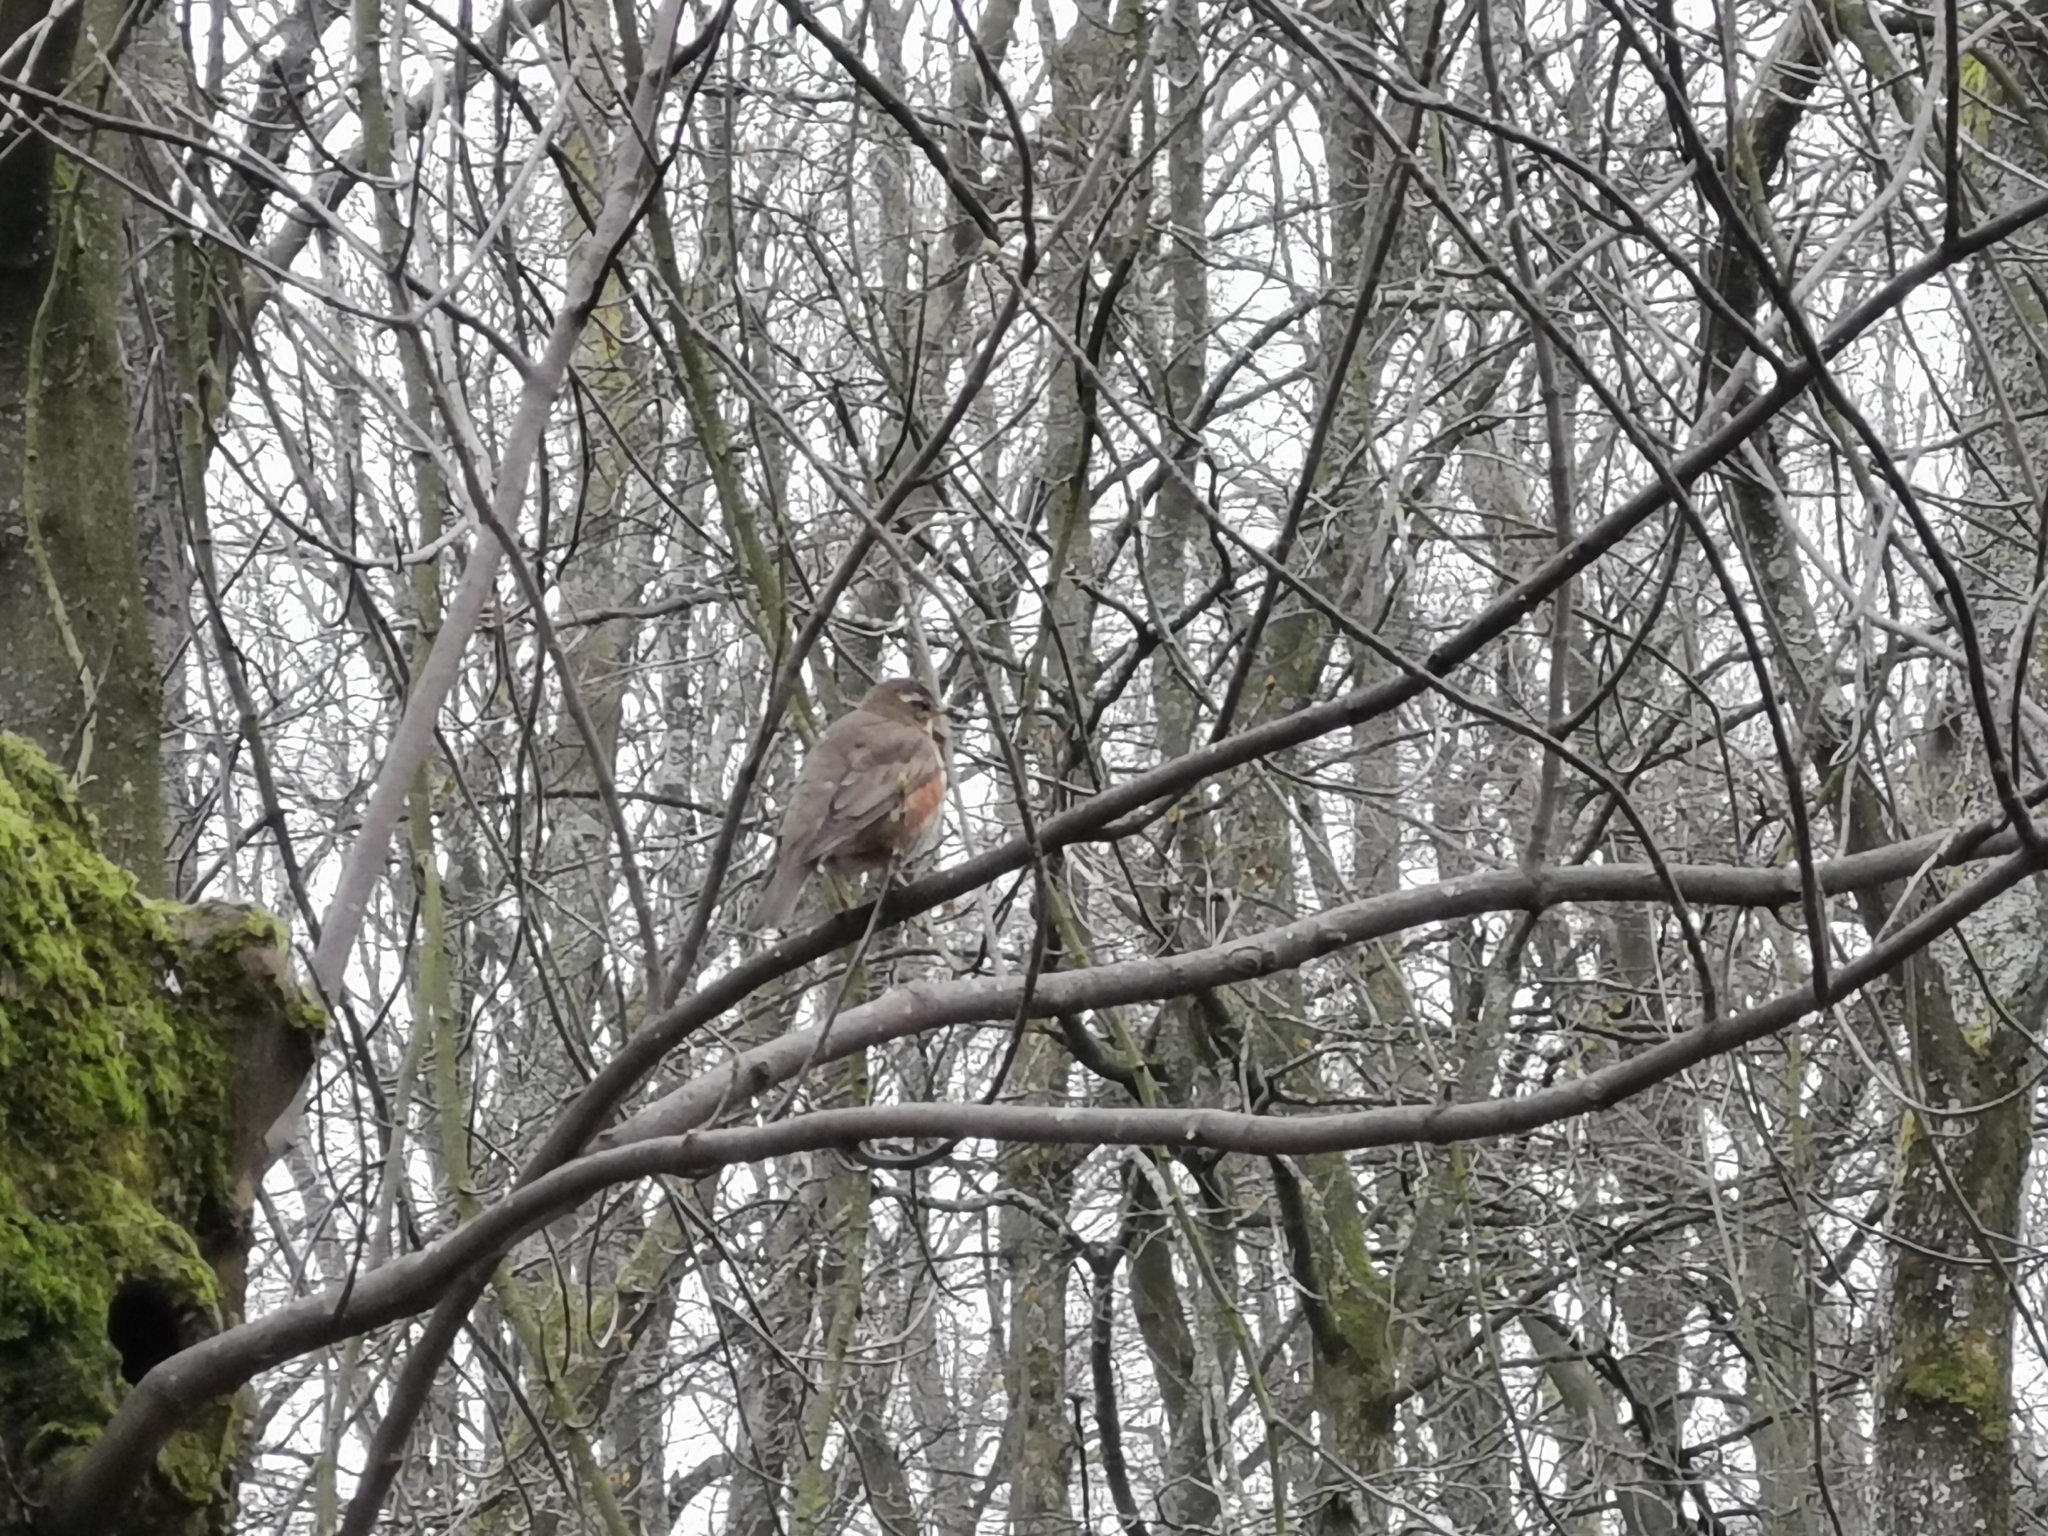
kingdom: Animalia
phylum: Chordata
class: Aves
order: Passeriformes
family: Turdidae
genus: Turdus
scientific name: Turdus iliacus
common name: Redwing
